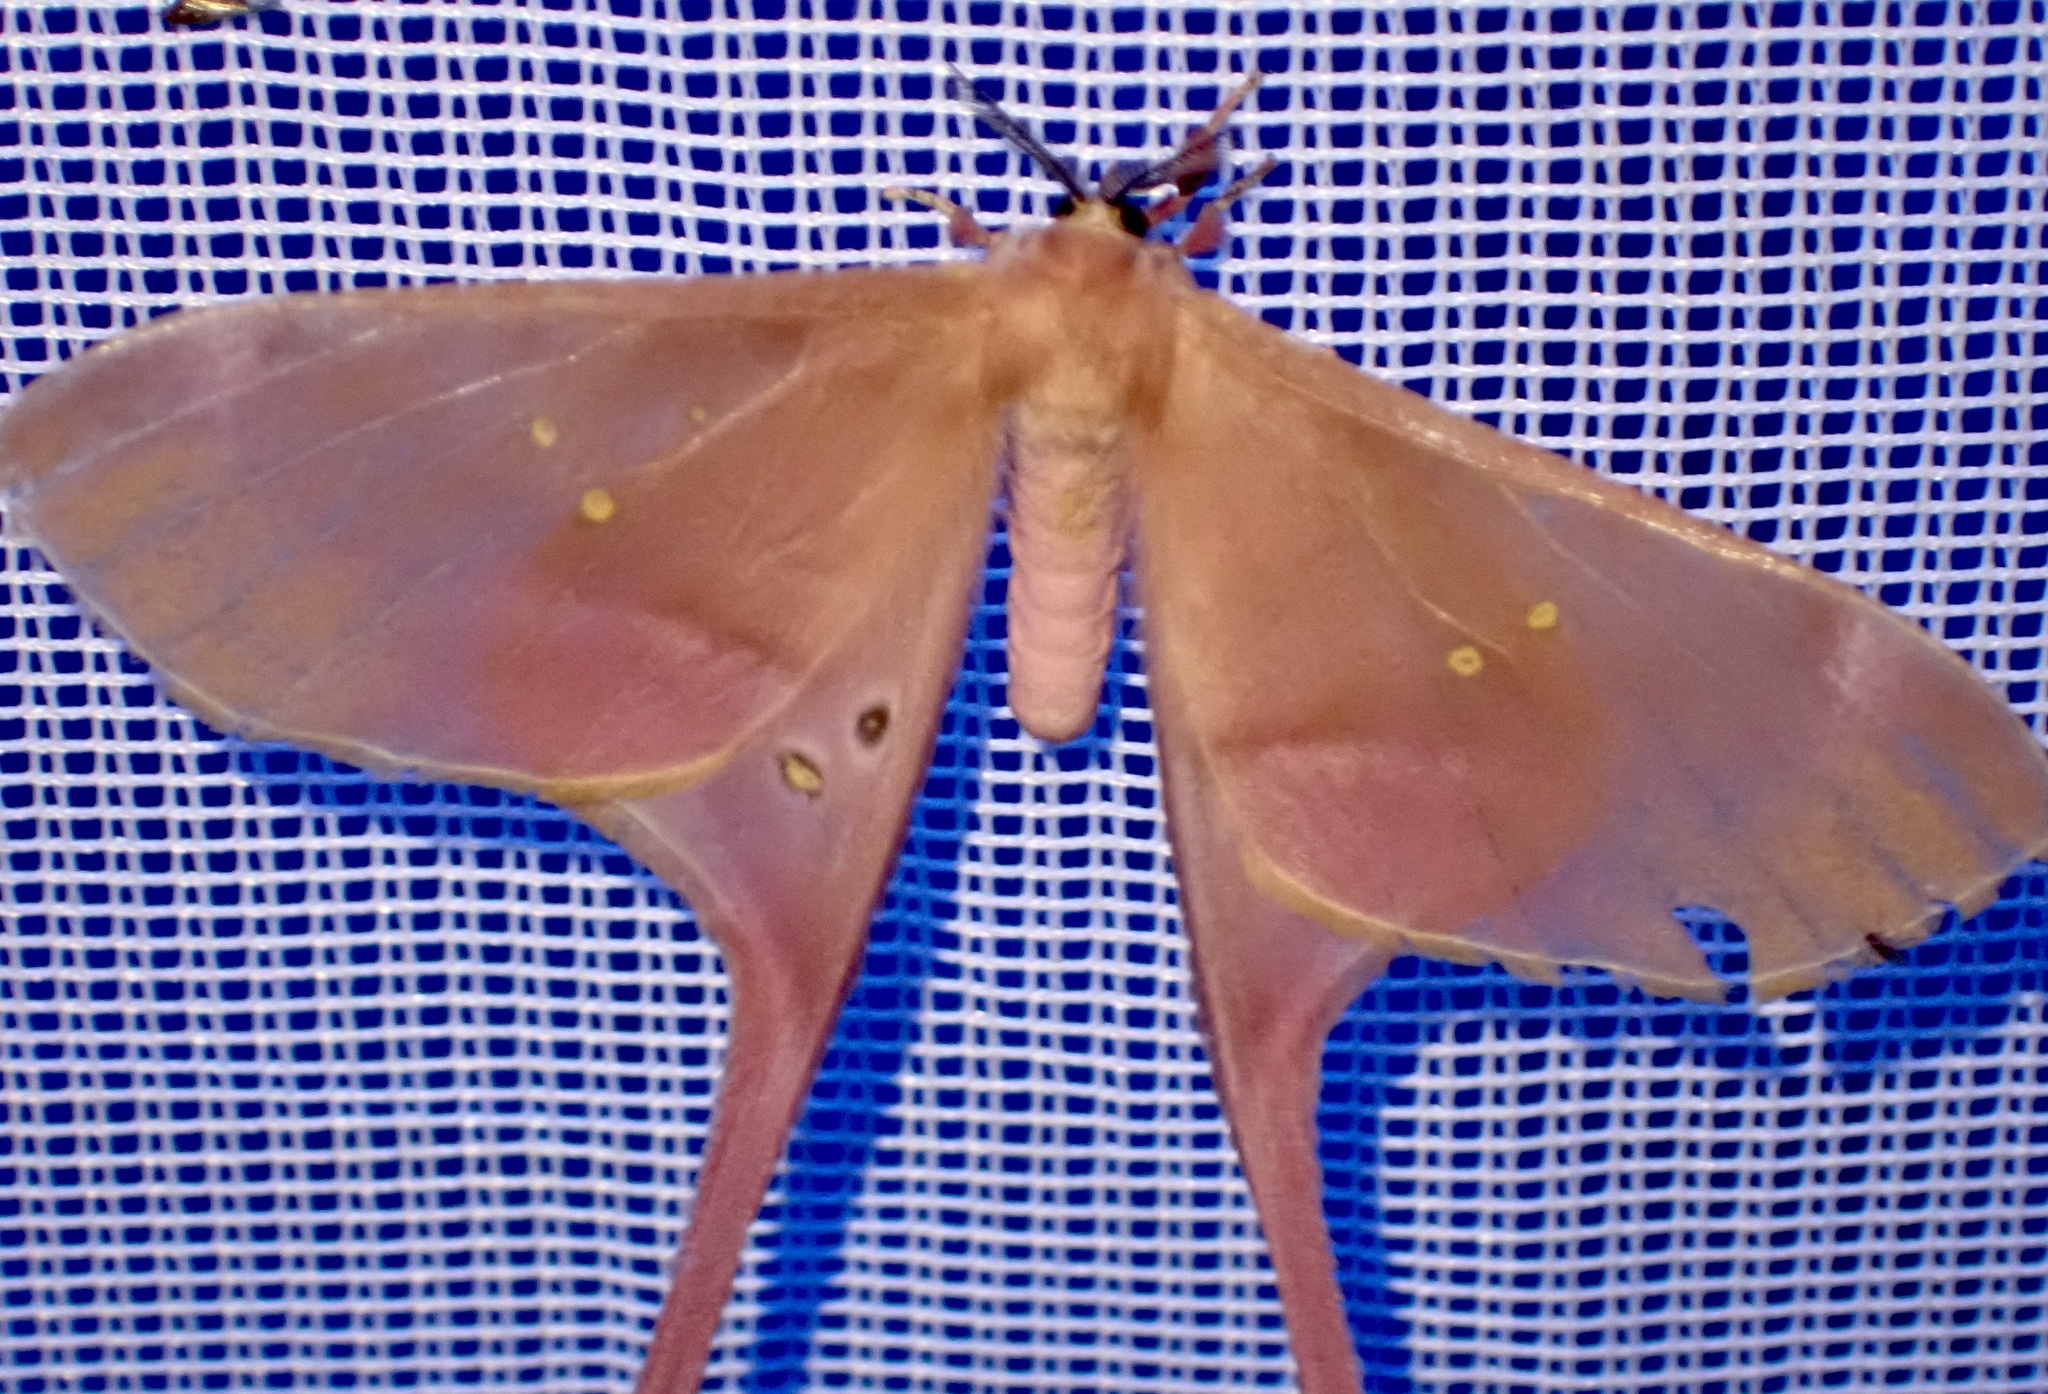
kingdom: Animalia
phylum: Arthropoda
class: Insecta
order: Lepidoptera
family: Saturniidae
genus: Eudaemonia
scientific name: Eudaemonia argus
